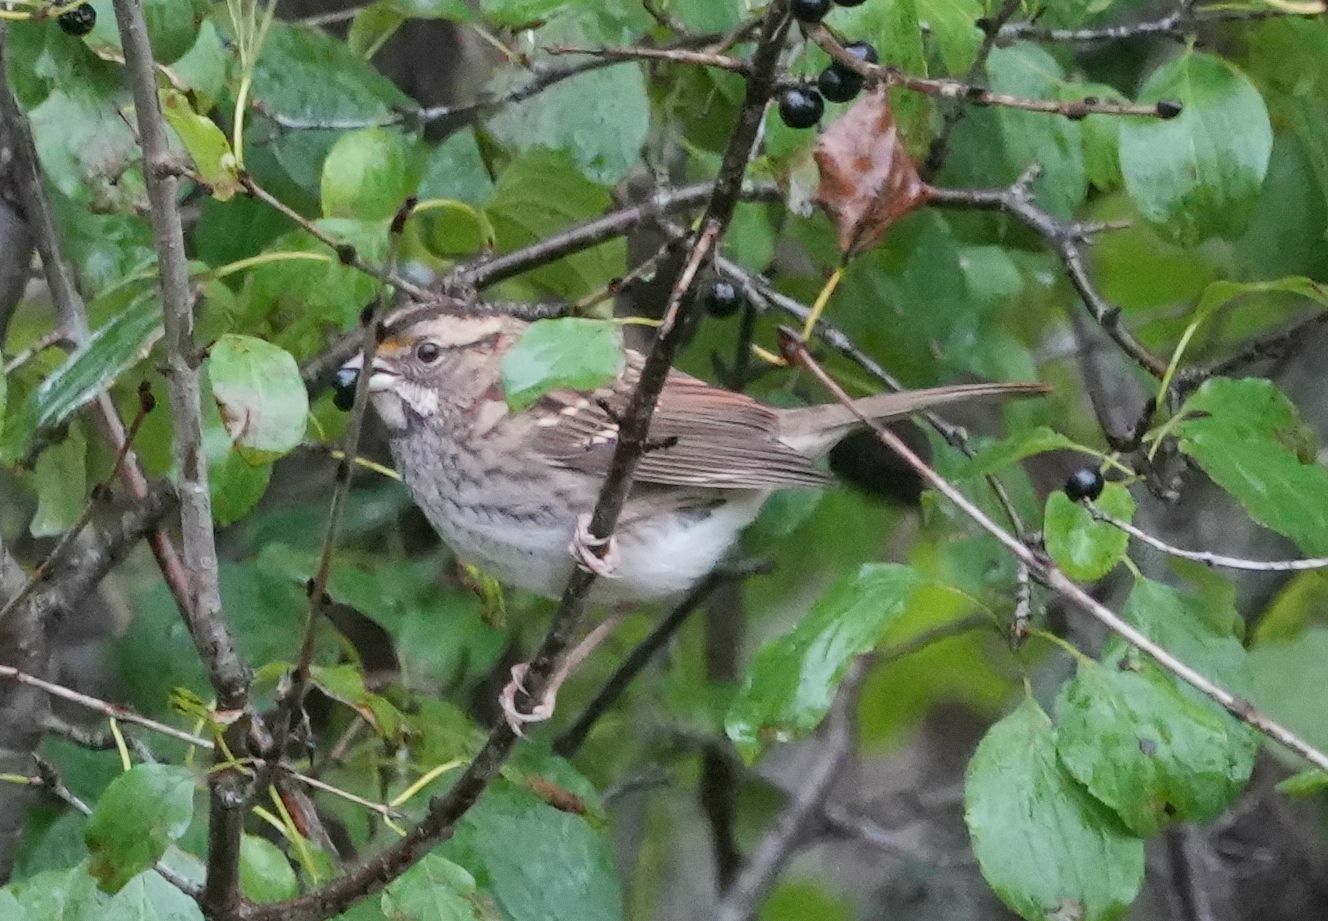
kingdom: Animalia
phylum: Chordata
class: Aves
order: Passeriformes
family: Passerellidae
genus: Zonotrichia
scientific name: Zonotrichia albicollis
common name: White-throated sparrow
